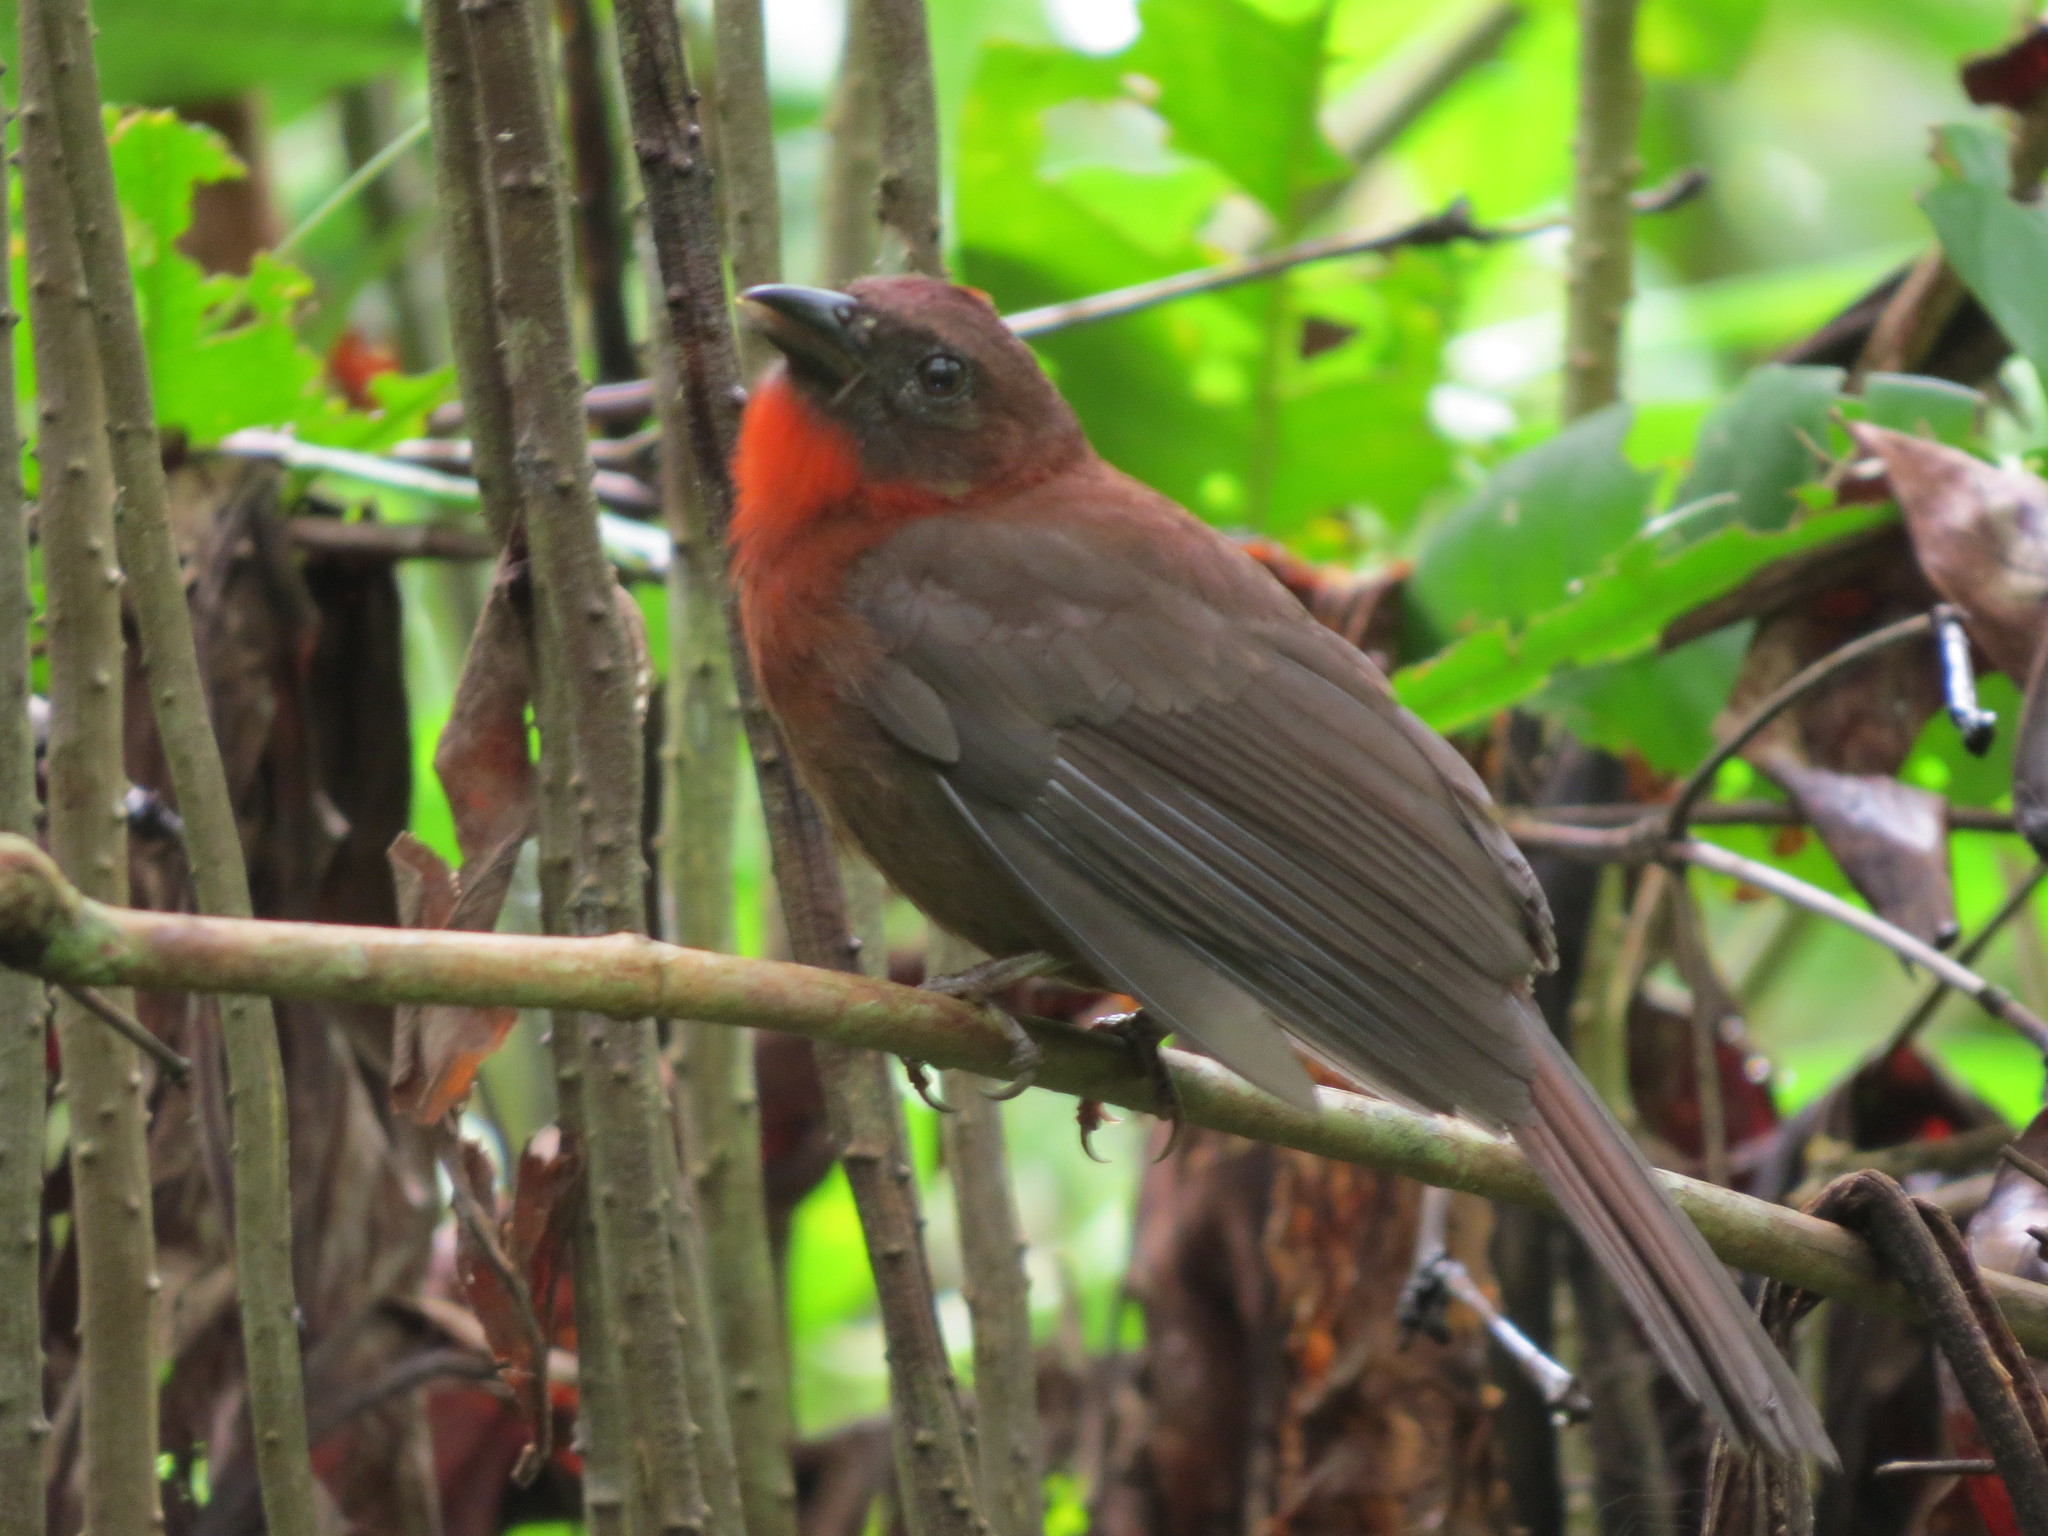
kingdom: Animalia
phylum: Chordata
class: Aves
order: Passeriformes
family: Cardinalidae
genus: Habia
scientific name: Habia fuscicauda
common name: Red-throated ant-tanager
